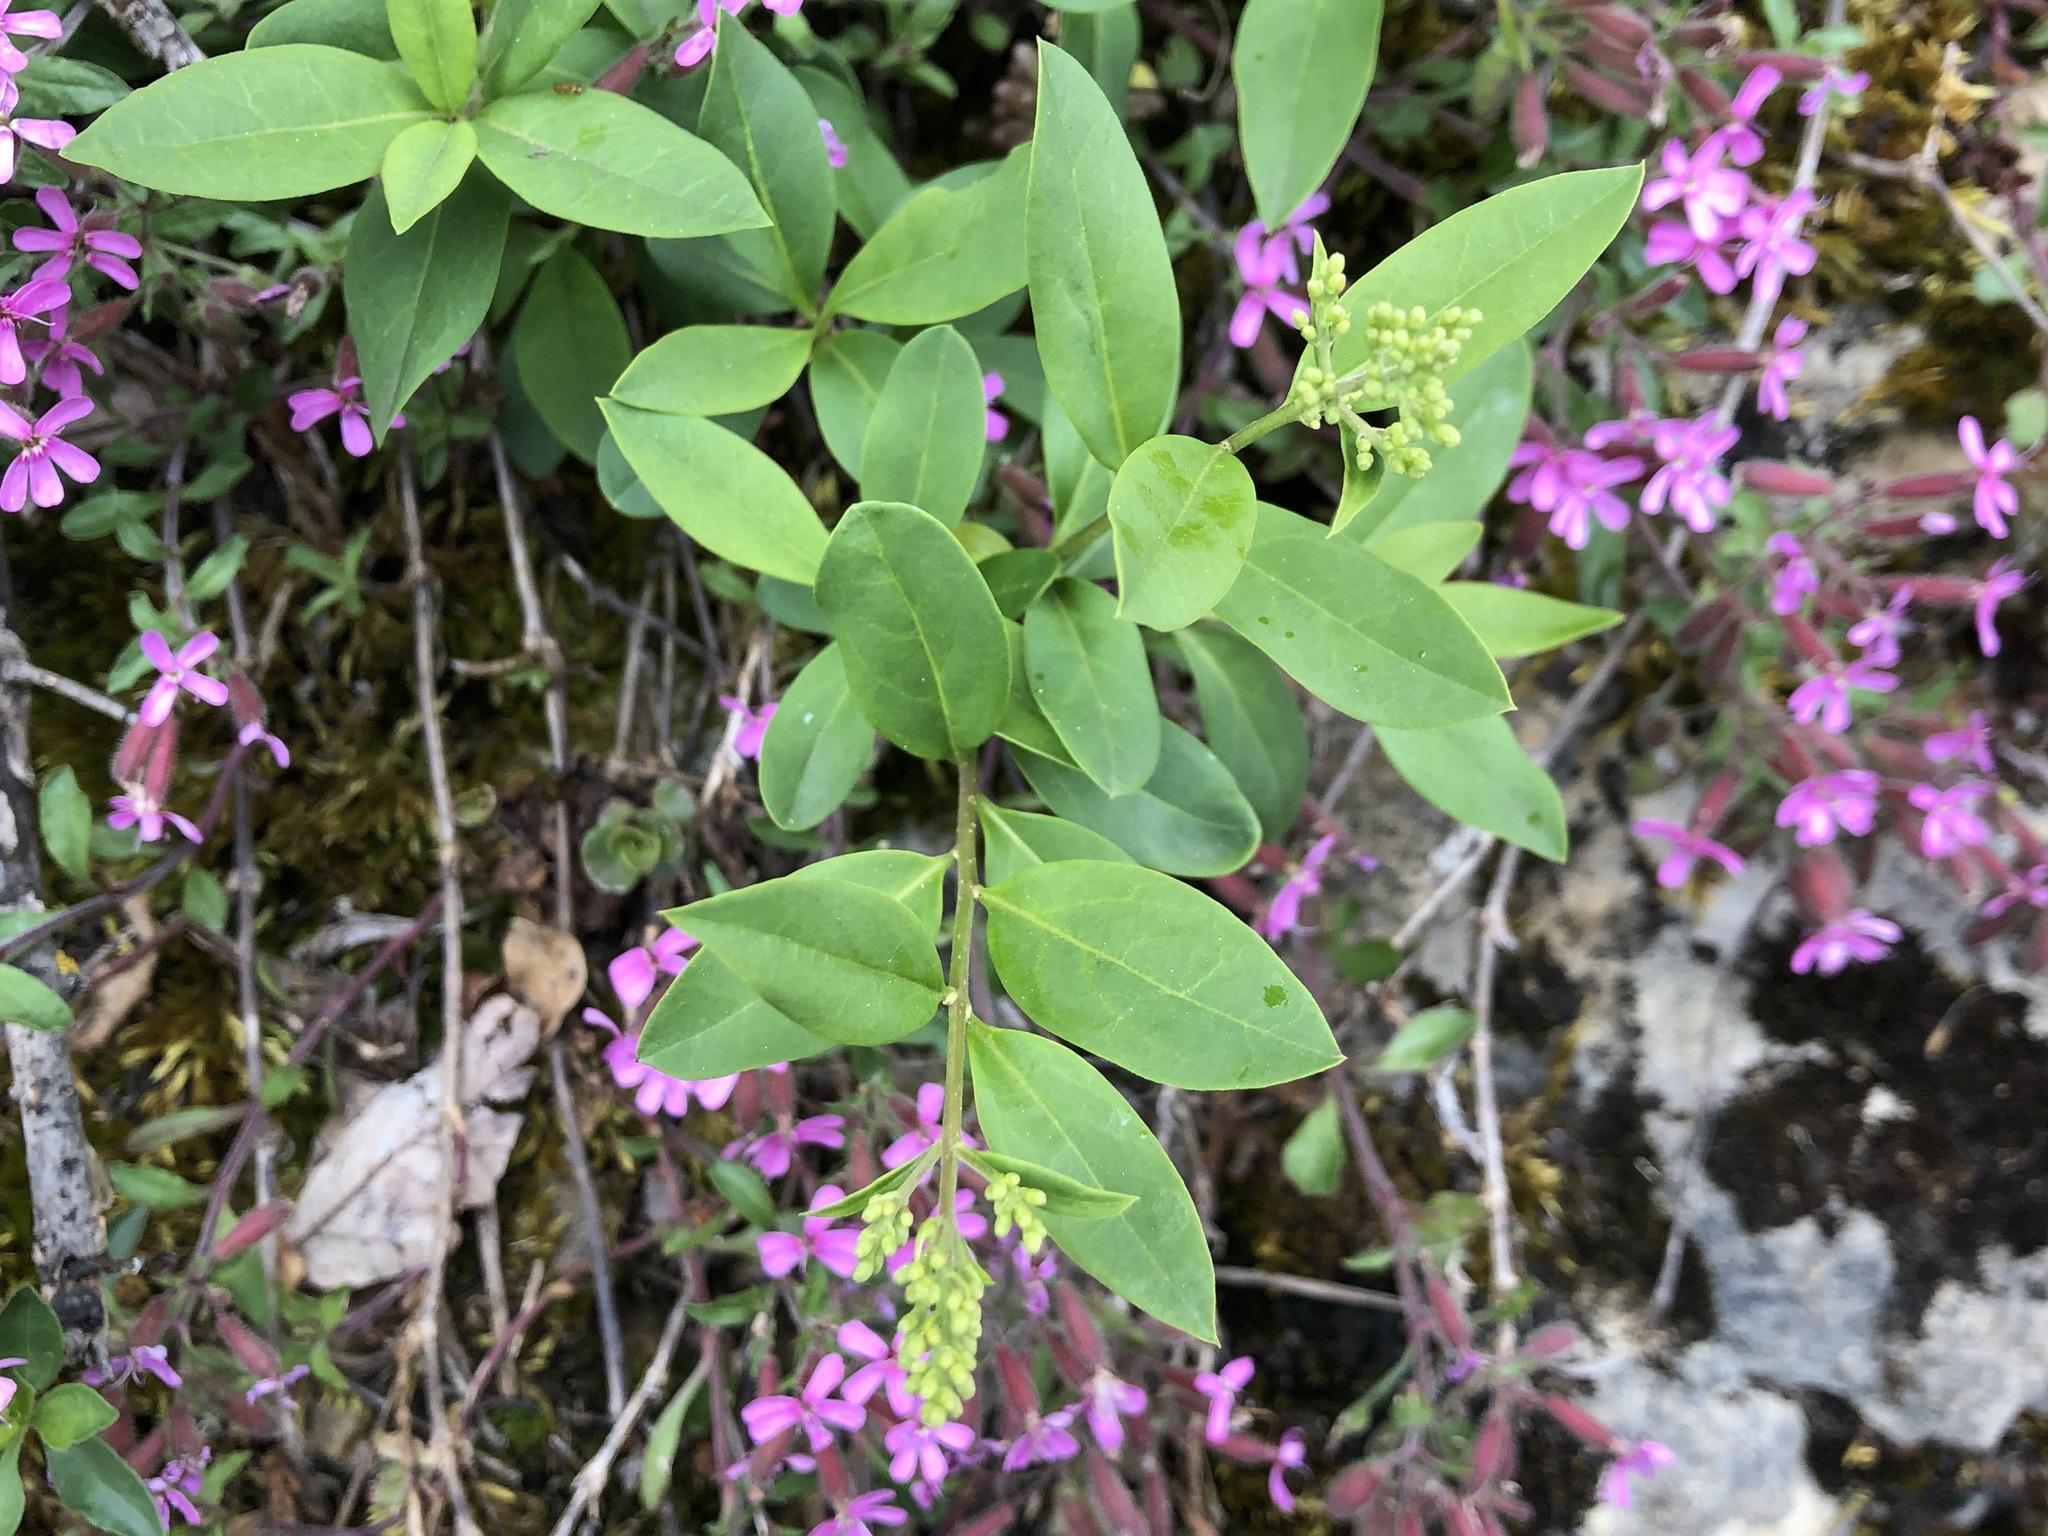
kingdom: Plantae
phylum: Tracheophyta
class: Magnoliopsida
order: Lamiales
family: Oleaceae
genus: Ligustrum
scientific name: Ligustrum vulgare
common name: Wild privet
